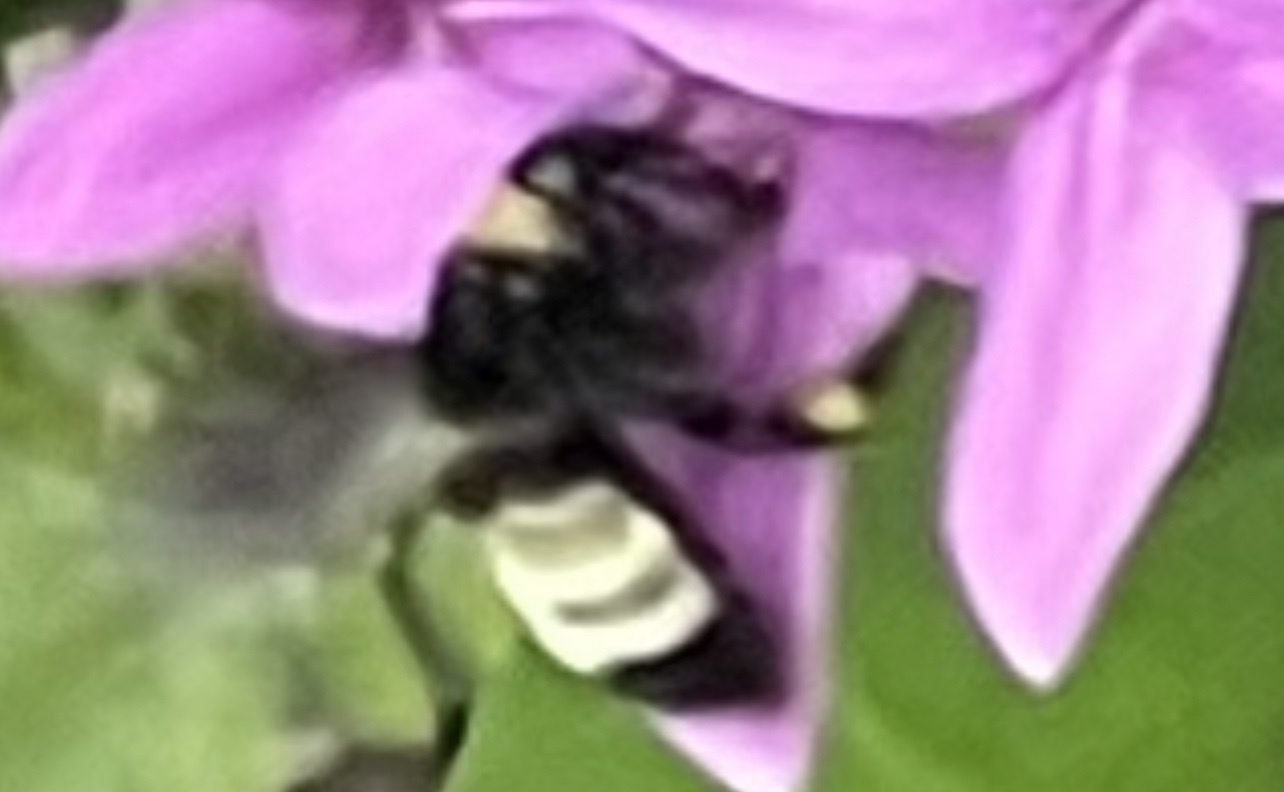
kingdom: Animalia
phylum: Arthropoda
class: Insecta
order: Hymenoptera
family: Apidae
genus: Bombus
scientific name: Bombus pensylvanicus
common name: Bumble bee
